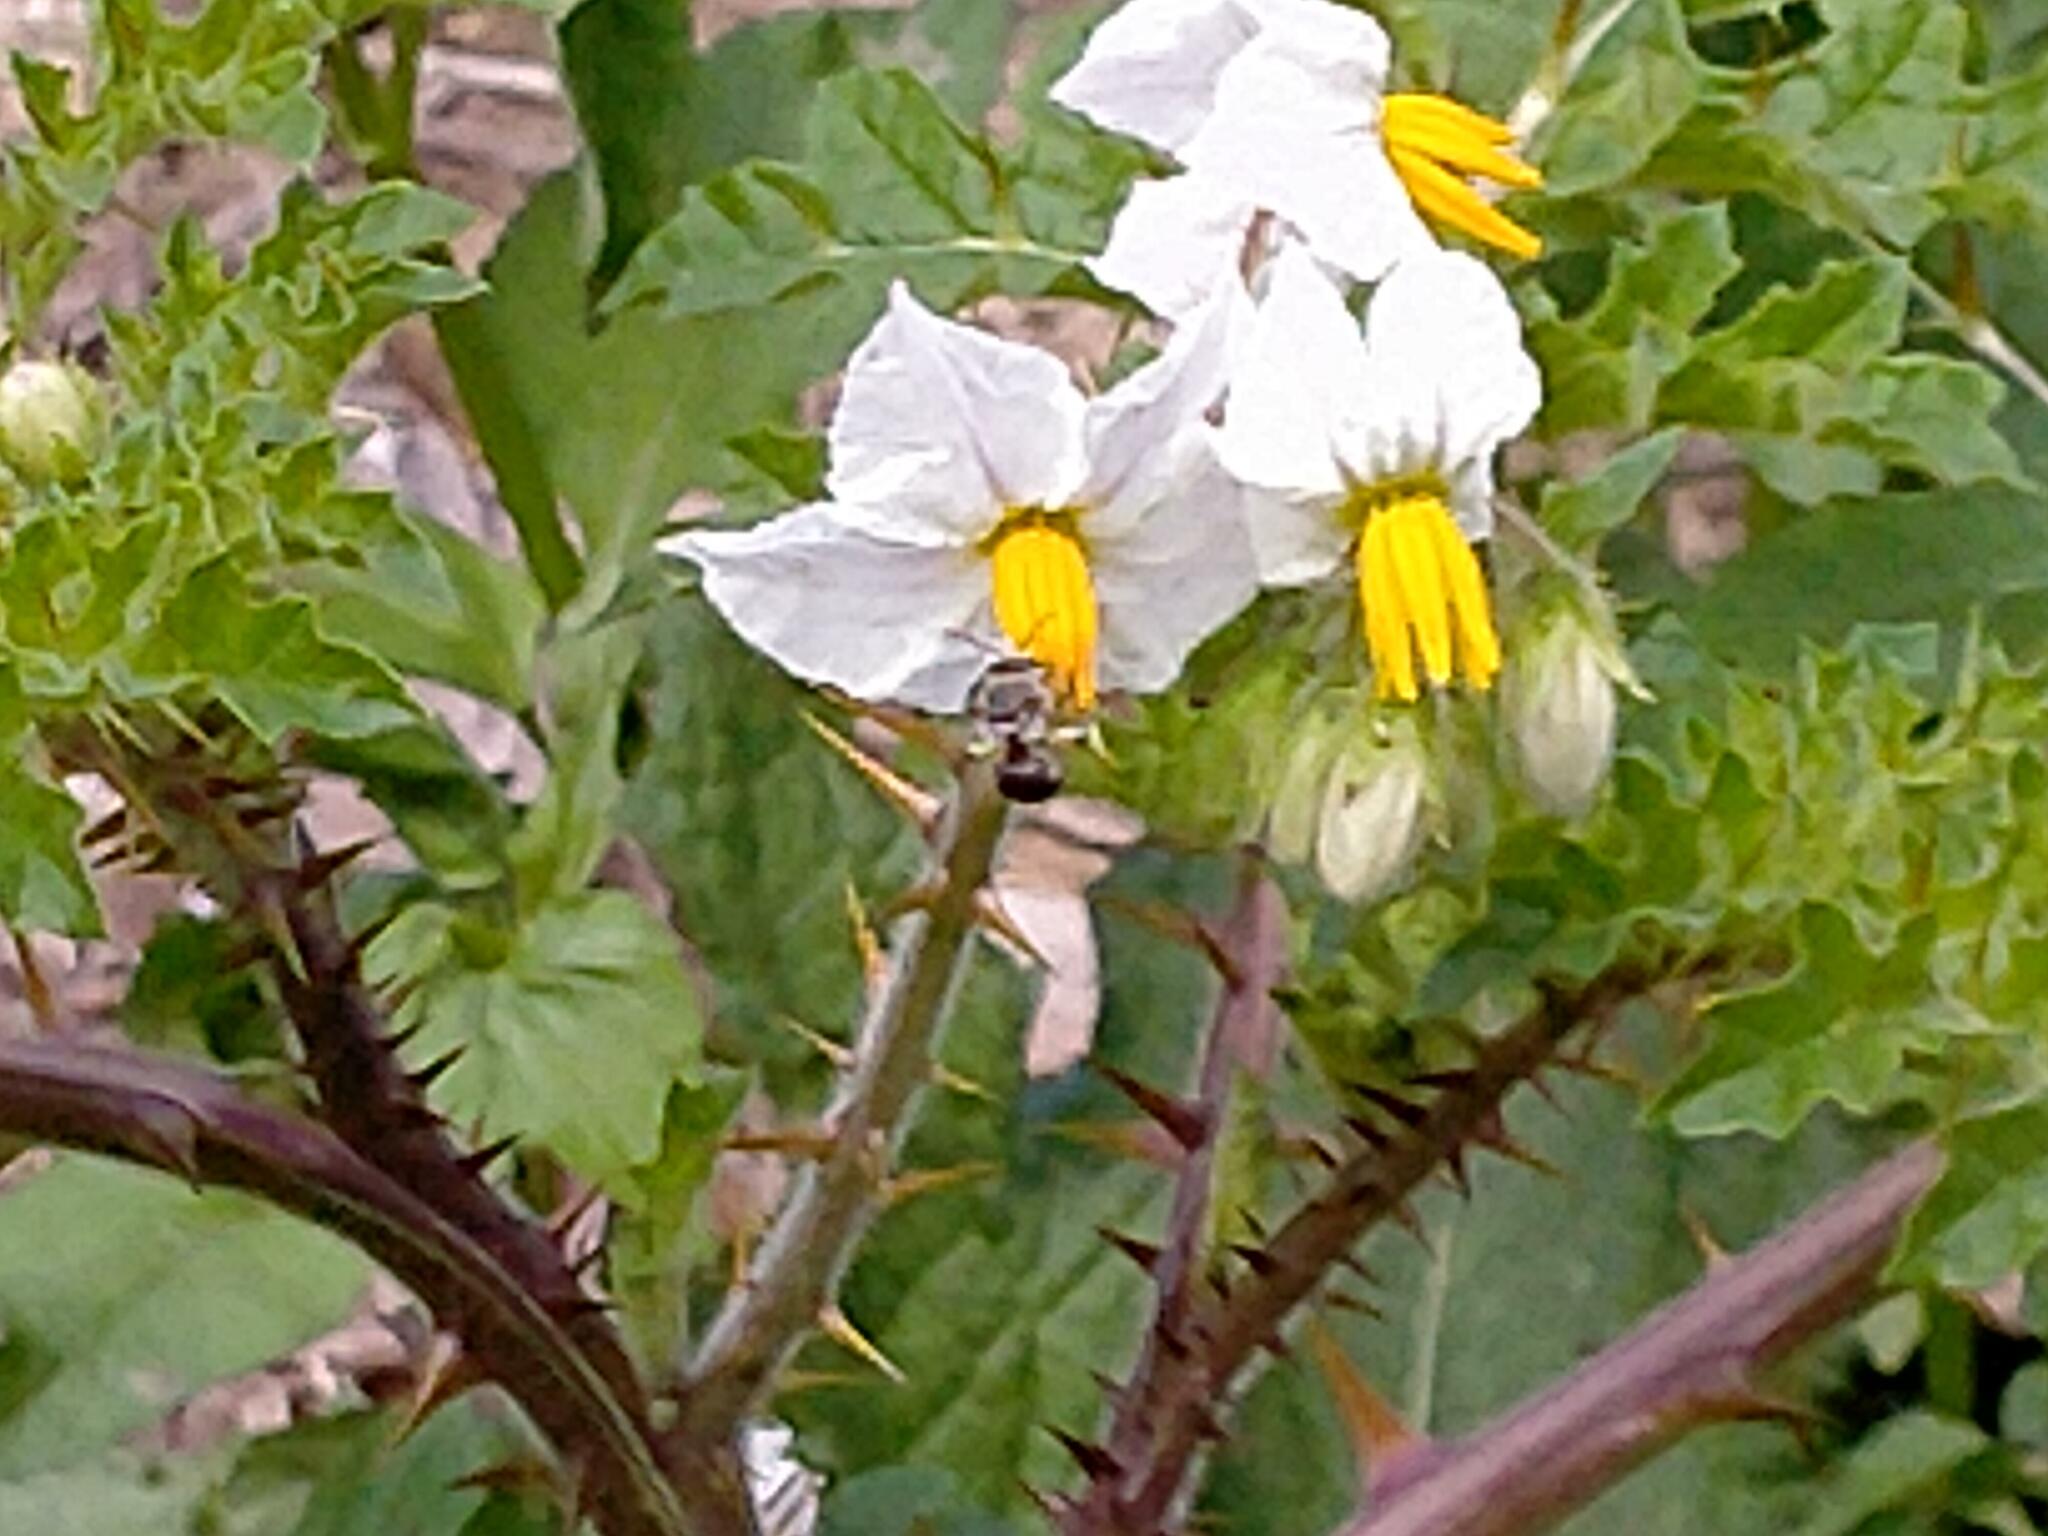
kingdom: Plantae
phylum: Tracheophyta
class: Magnoliopsida
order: Solanales
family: Solanaceae
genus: Solanum
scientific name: Solanum sisymbriifolium
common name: Red buffalo-bur
